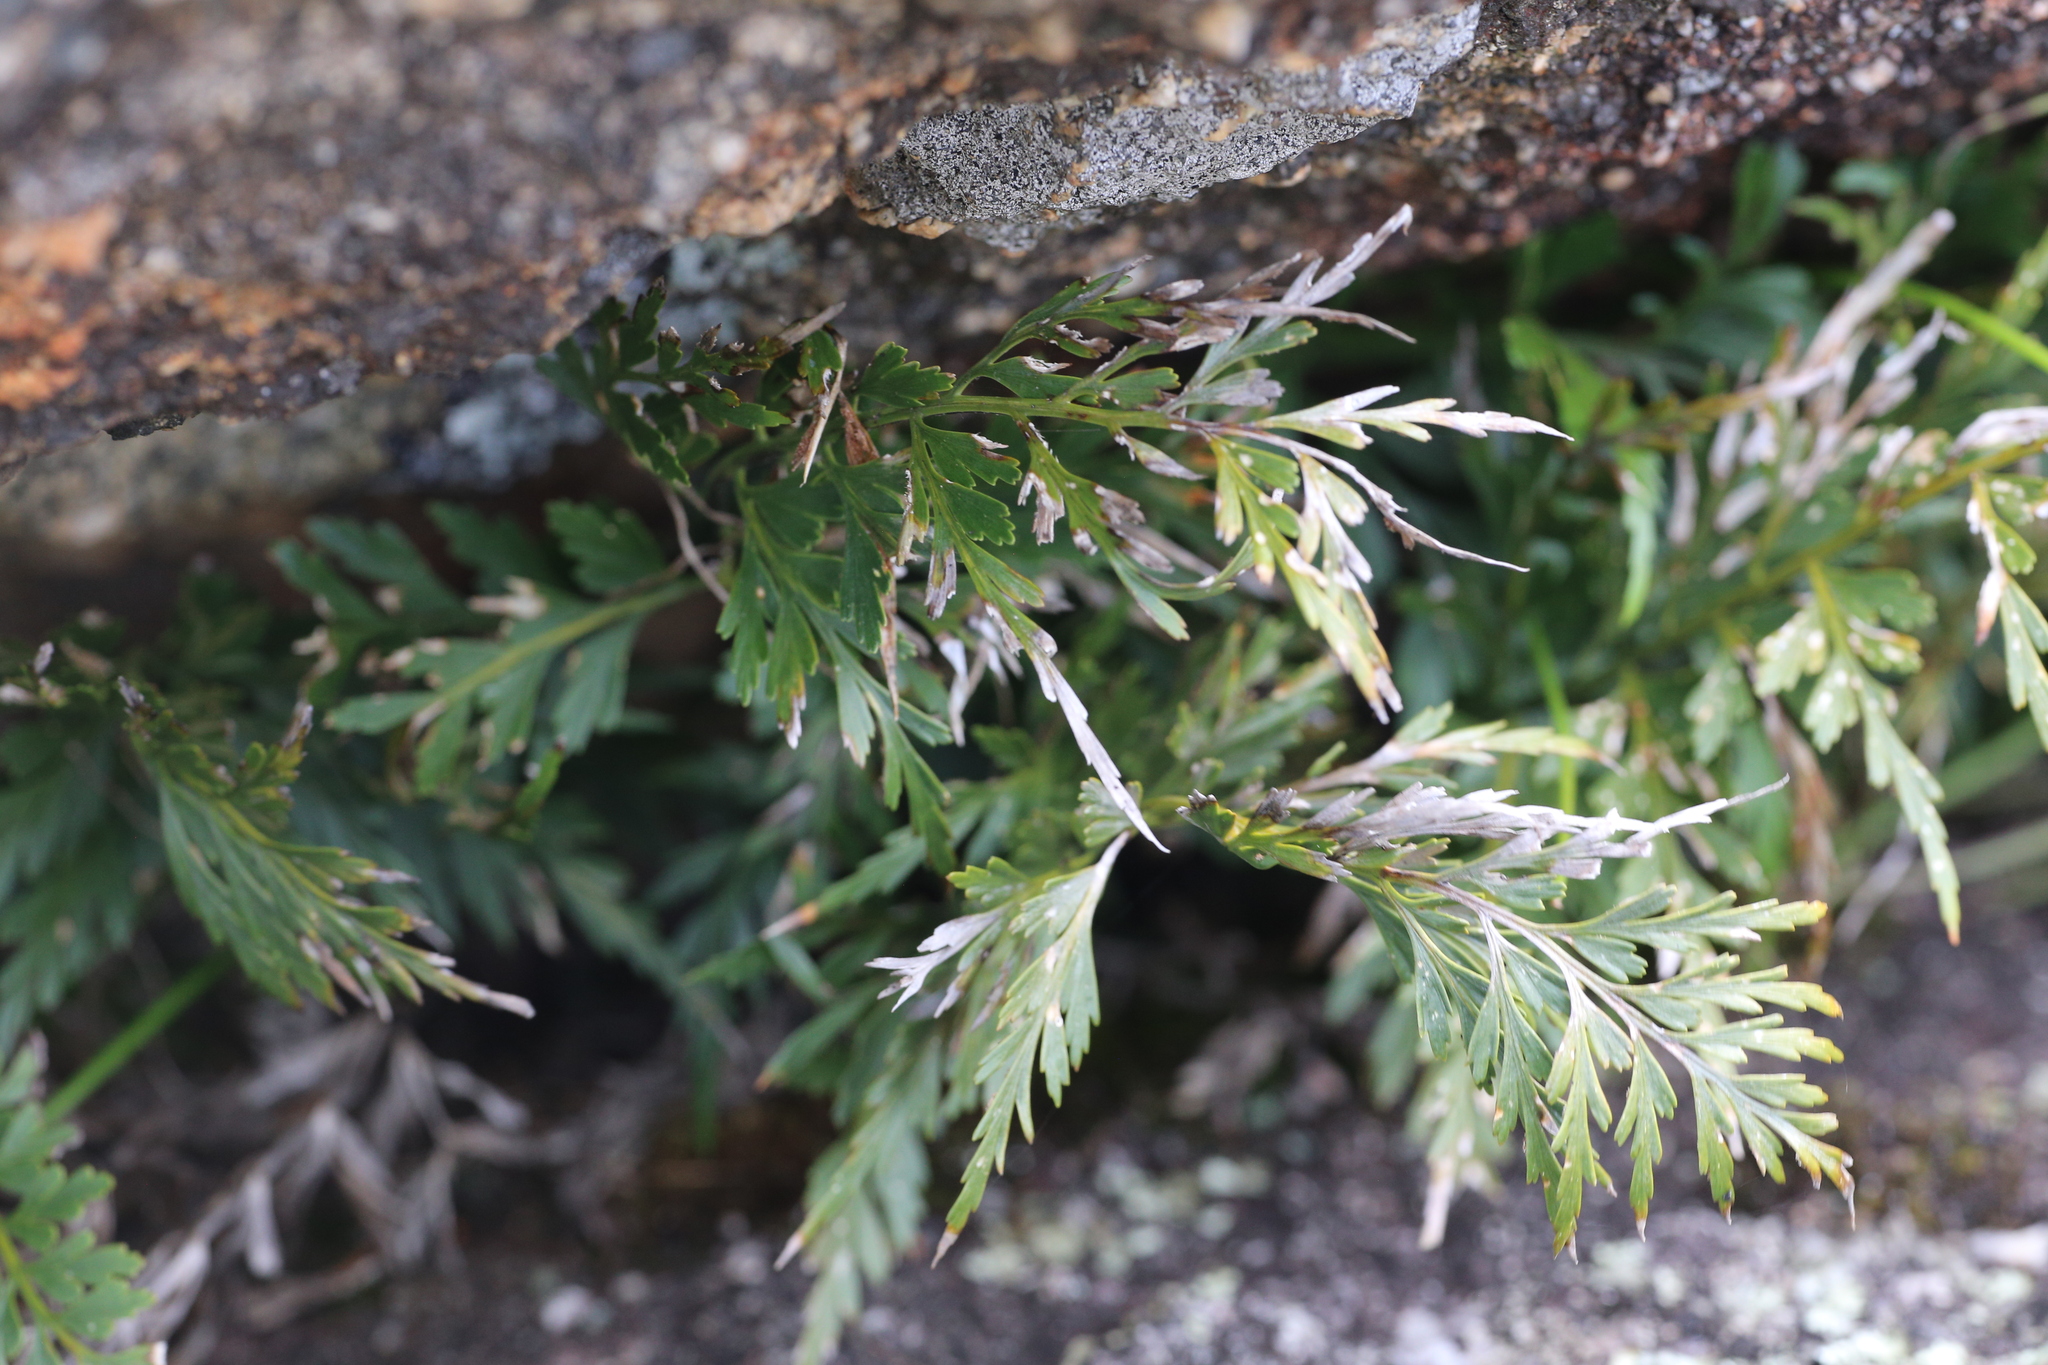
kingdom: Plantae
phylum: Tracheophyta
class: Polypodiopsida
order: Polypodiales
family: Aspleniaceae
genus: Asplenium
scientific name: Asplenium aethiopicum
